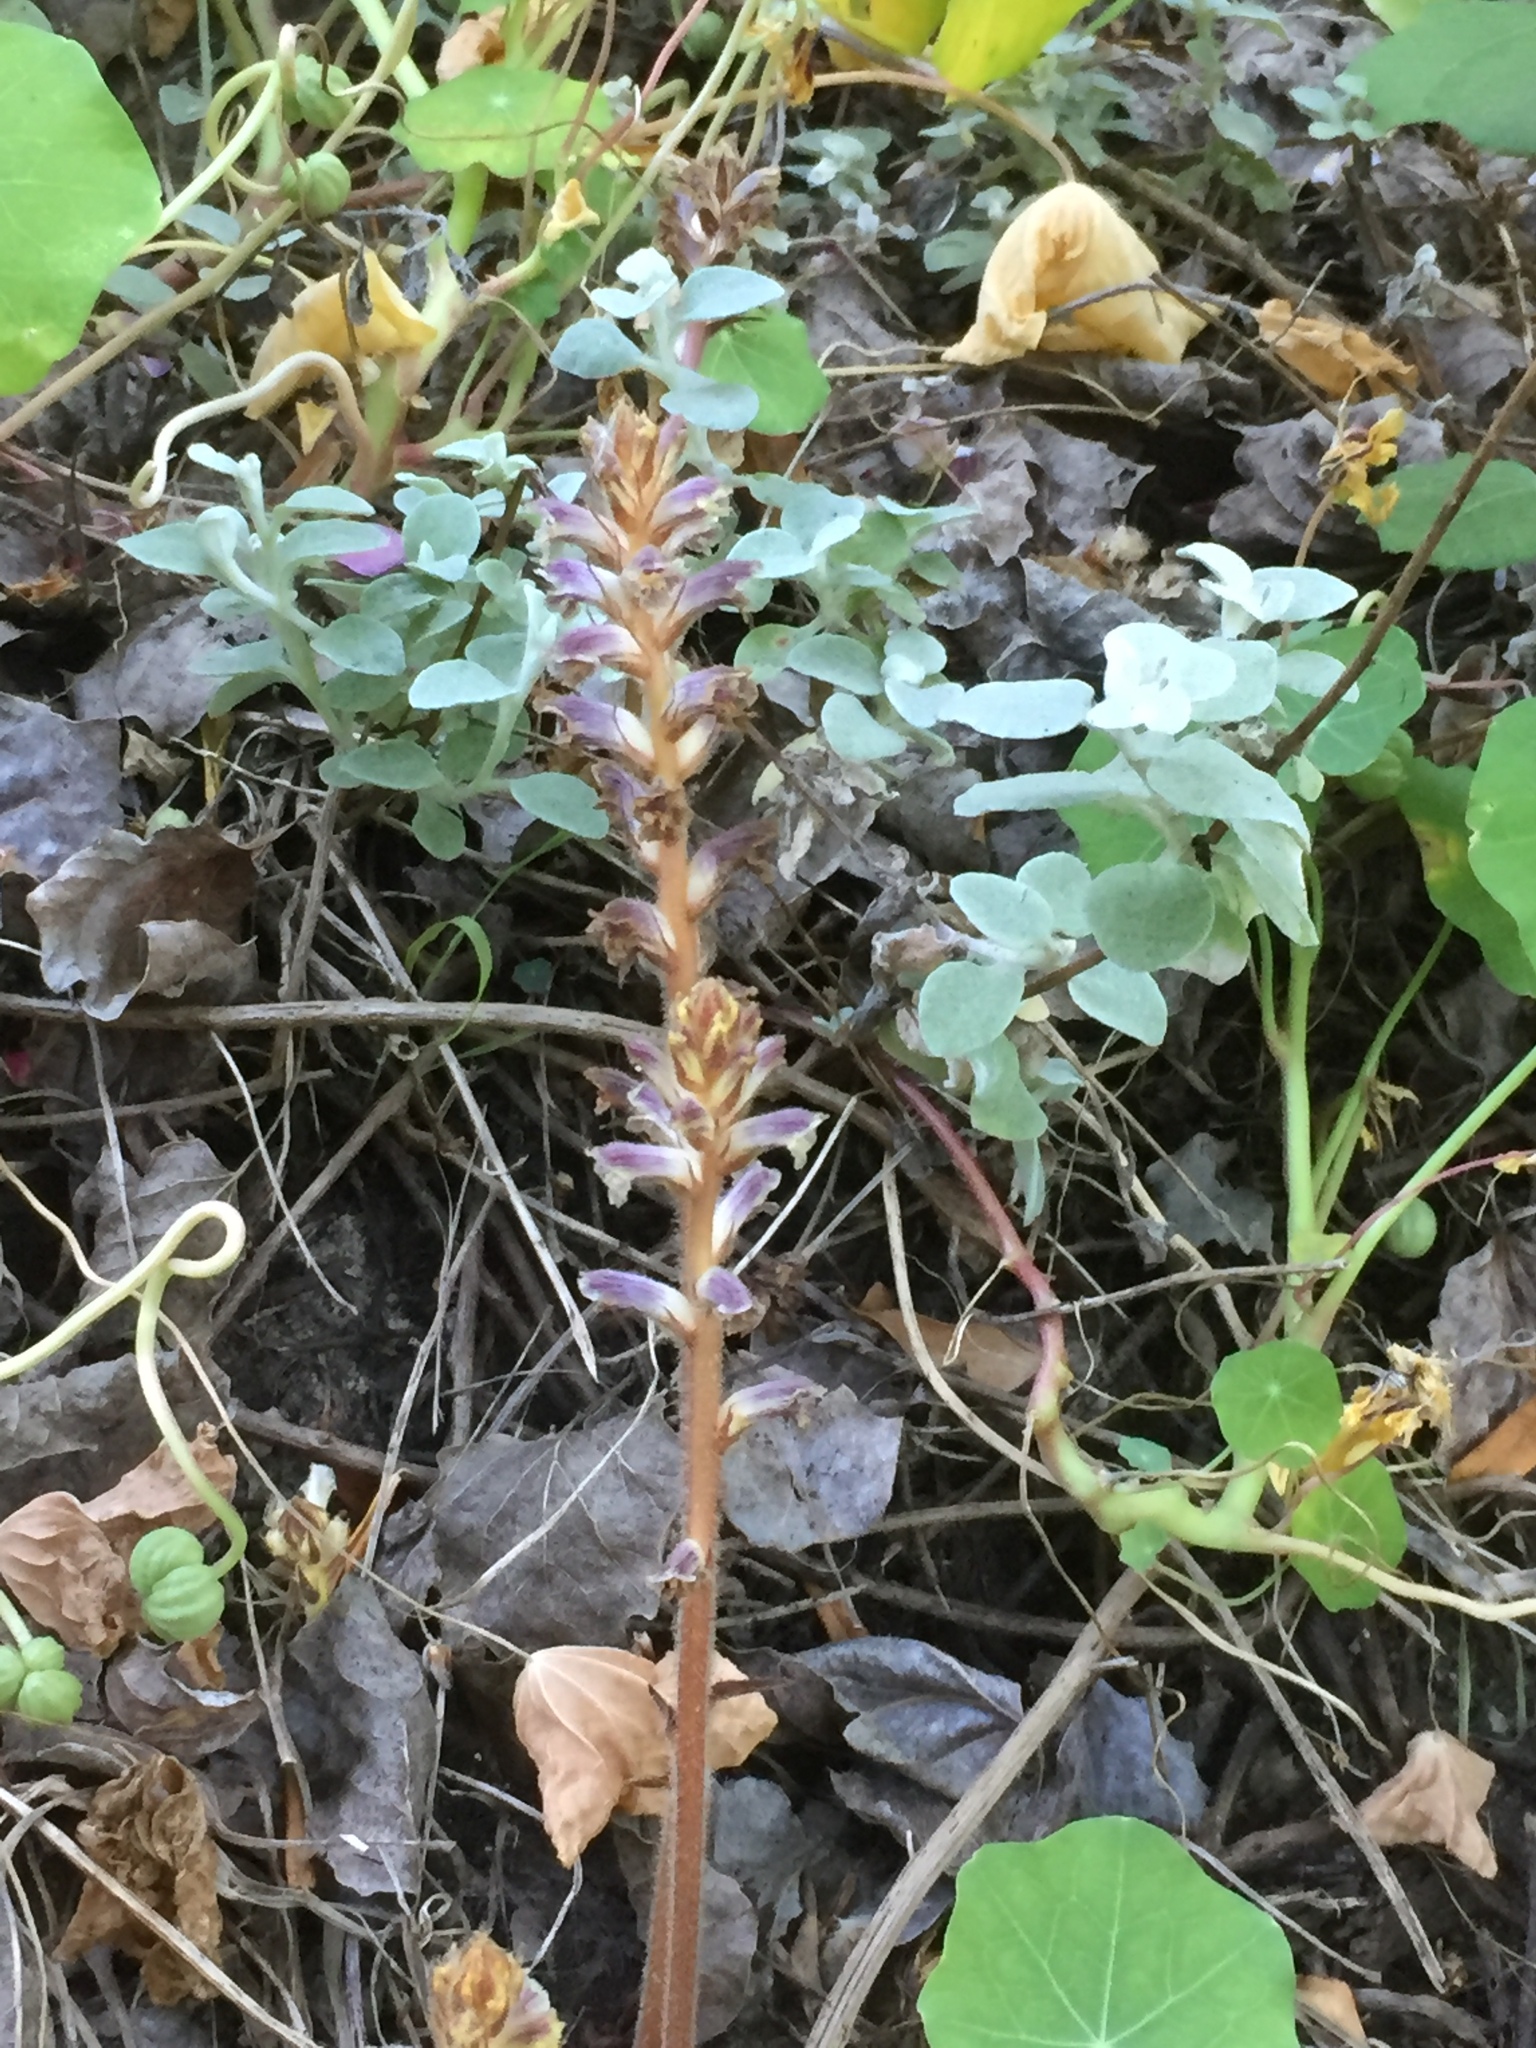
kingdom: Plantae
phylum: Tracheophyta
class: Magnoliopsida
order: Lamiales
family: Orobanchaceae
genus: Orobanche
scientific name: Orobanche minor
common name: Common broomrape
